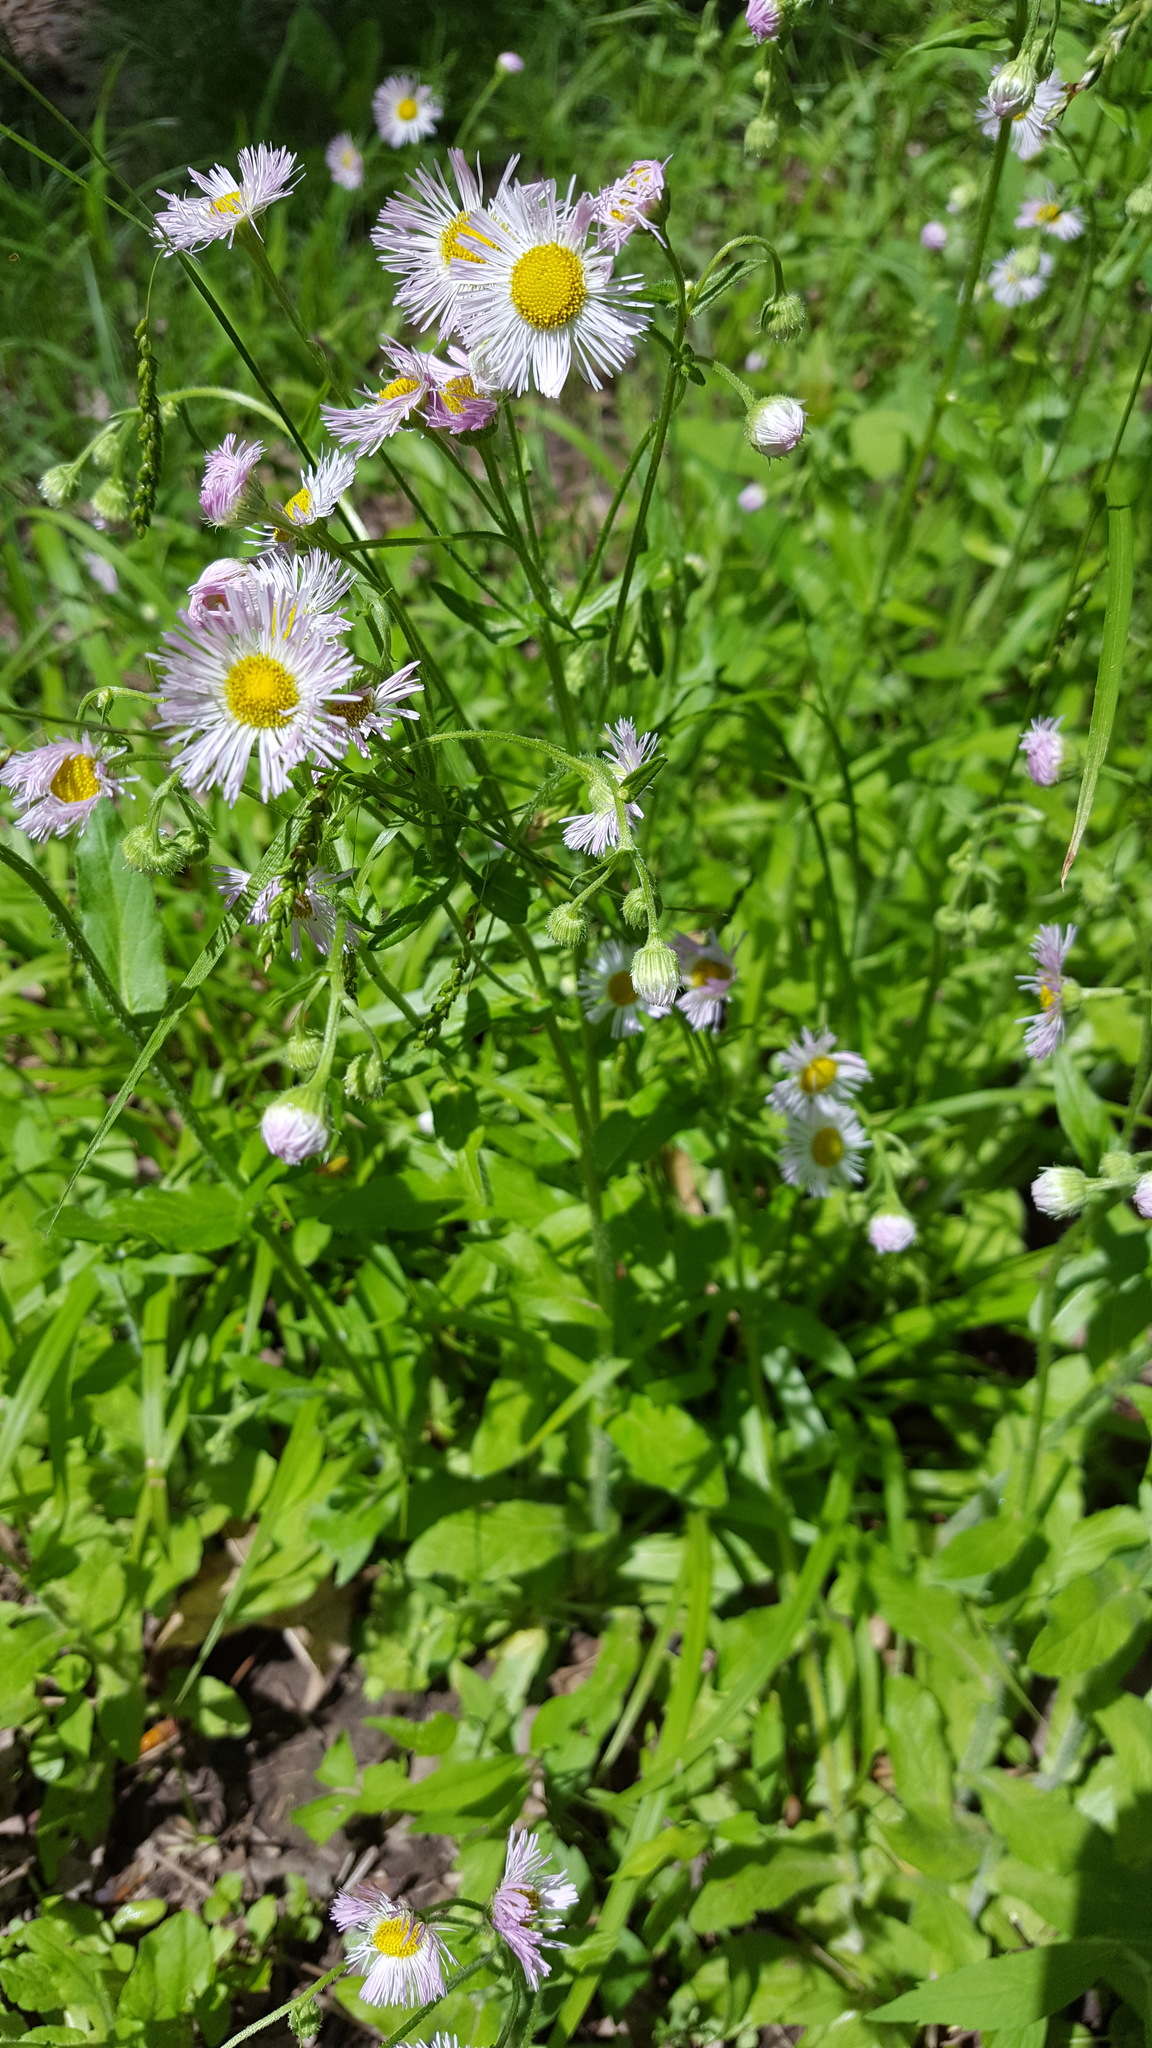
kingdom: Plantae
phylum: Tracheophyta
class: Magnoliopsida
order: Asterales
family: Asteraceae
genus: Erigeron
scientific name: Erigeron philadelphicus
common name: Robin's-plantain
